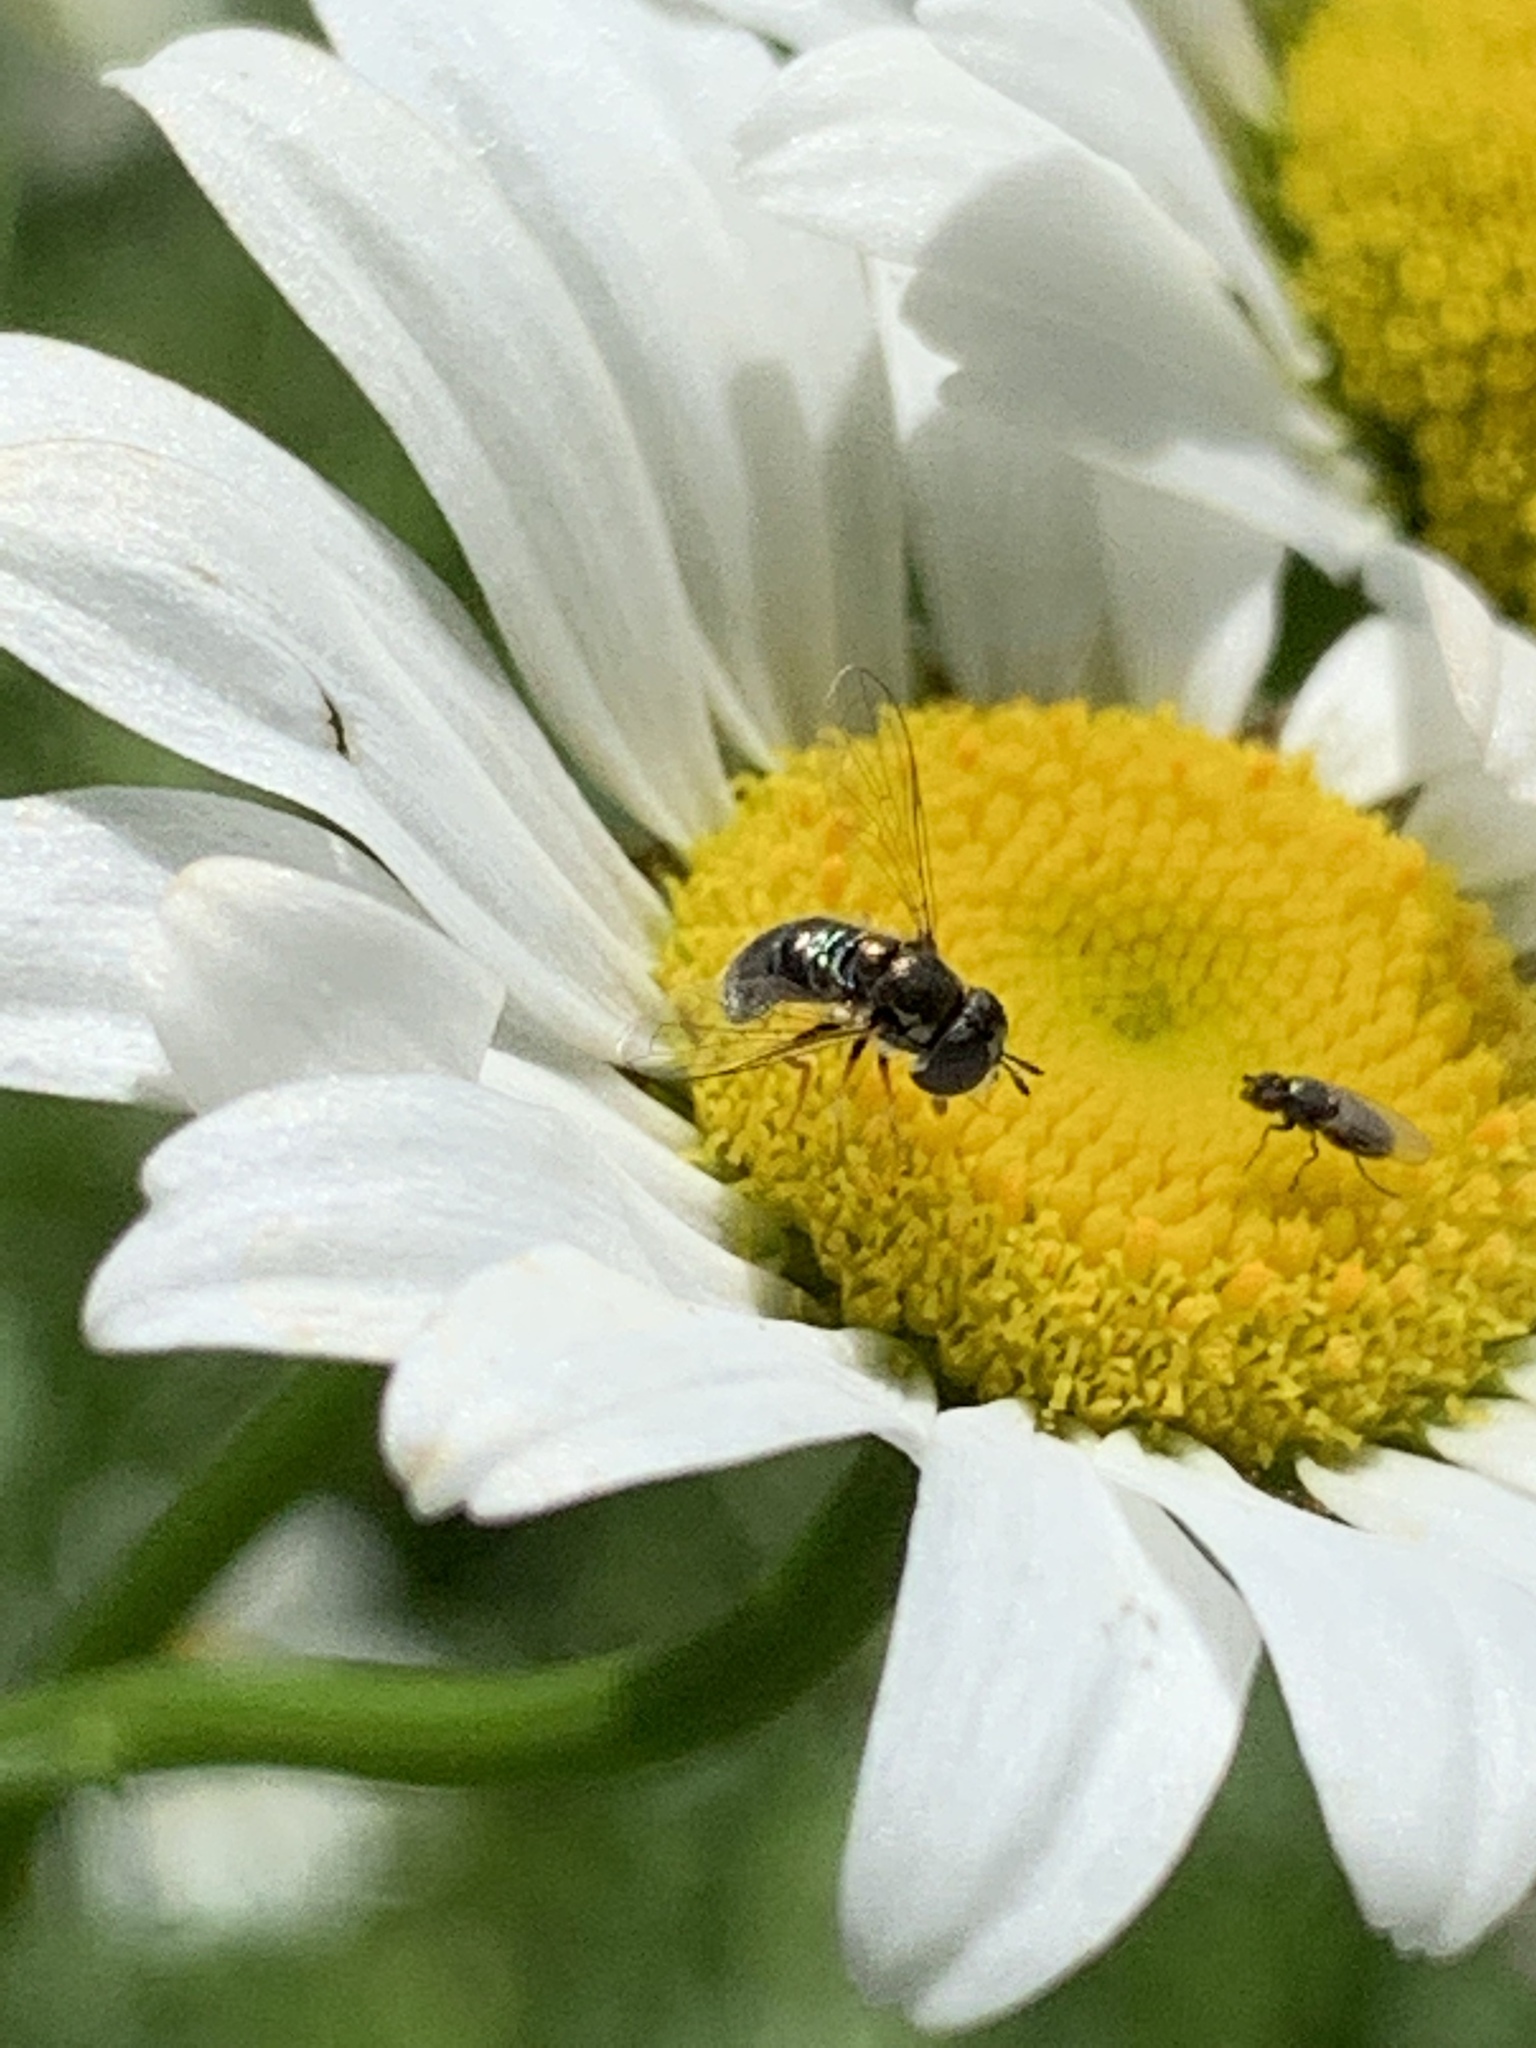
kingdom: Animalia
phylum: Arthropoda
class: Insecta
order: Diptera
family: Syrphidae
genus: Paragus
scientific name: Paragus
